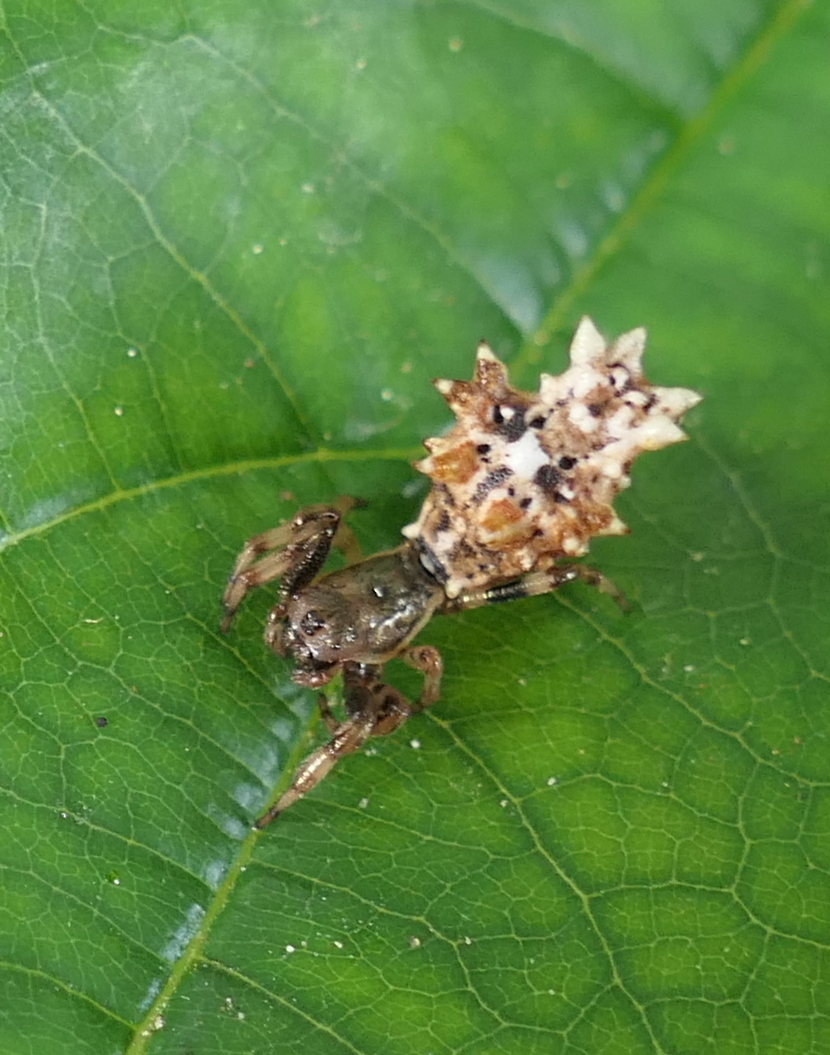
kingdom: Animalia
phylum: Arthropoda
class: Arachnida
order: Araneae
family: Araneidae
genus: Micrathena
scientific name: Micrathena horrida
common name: Orb weavers
